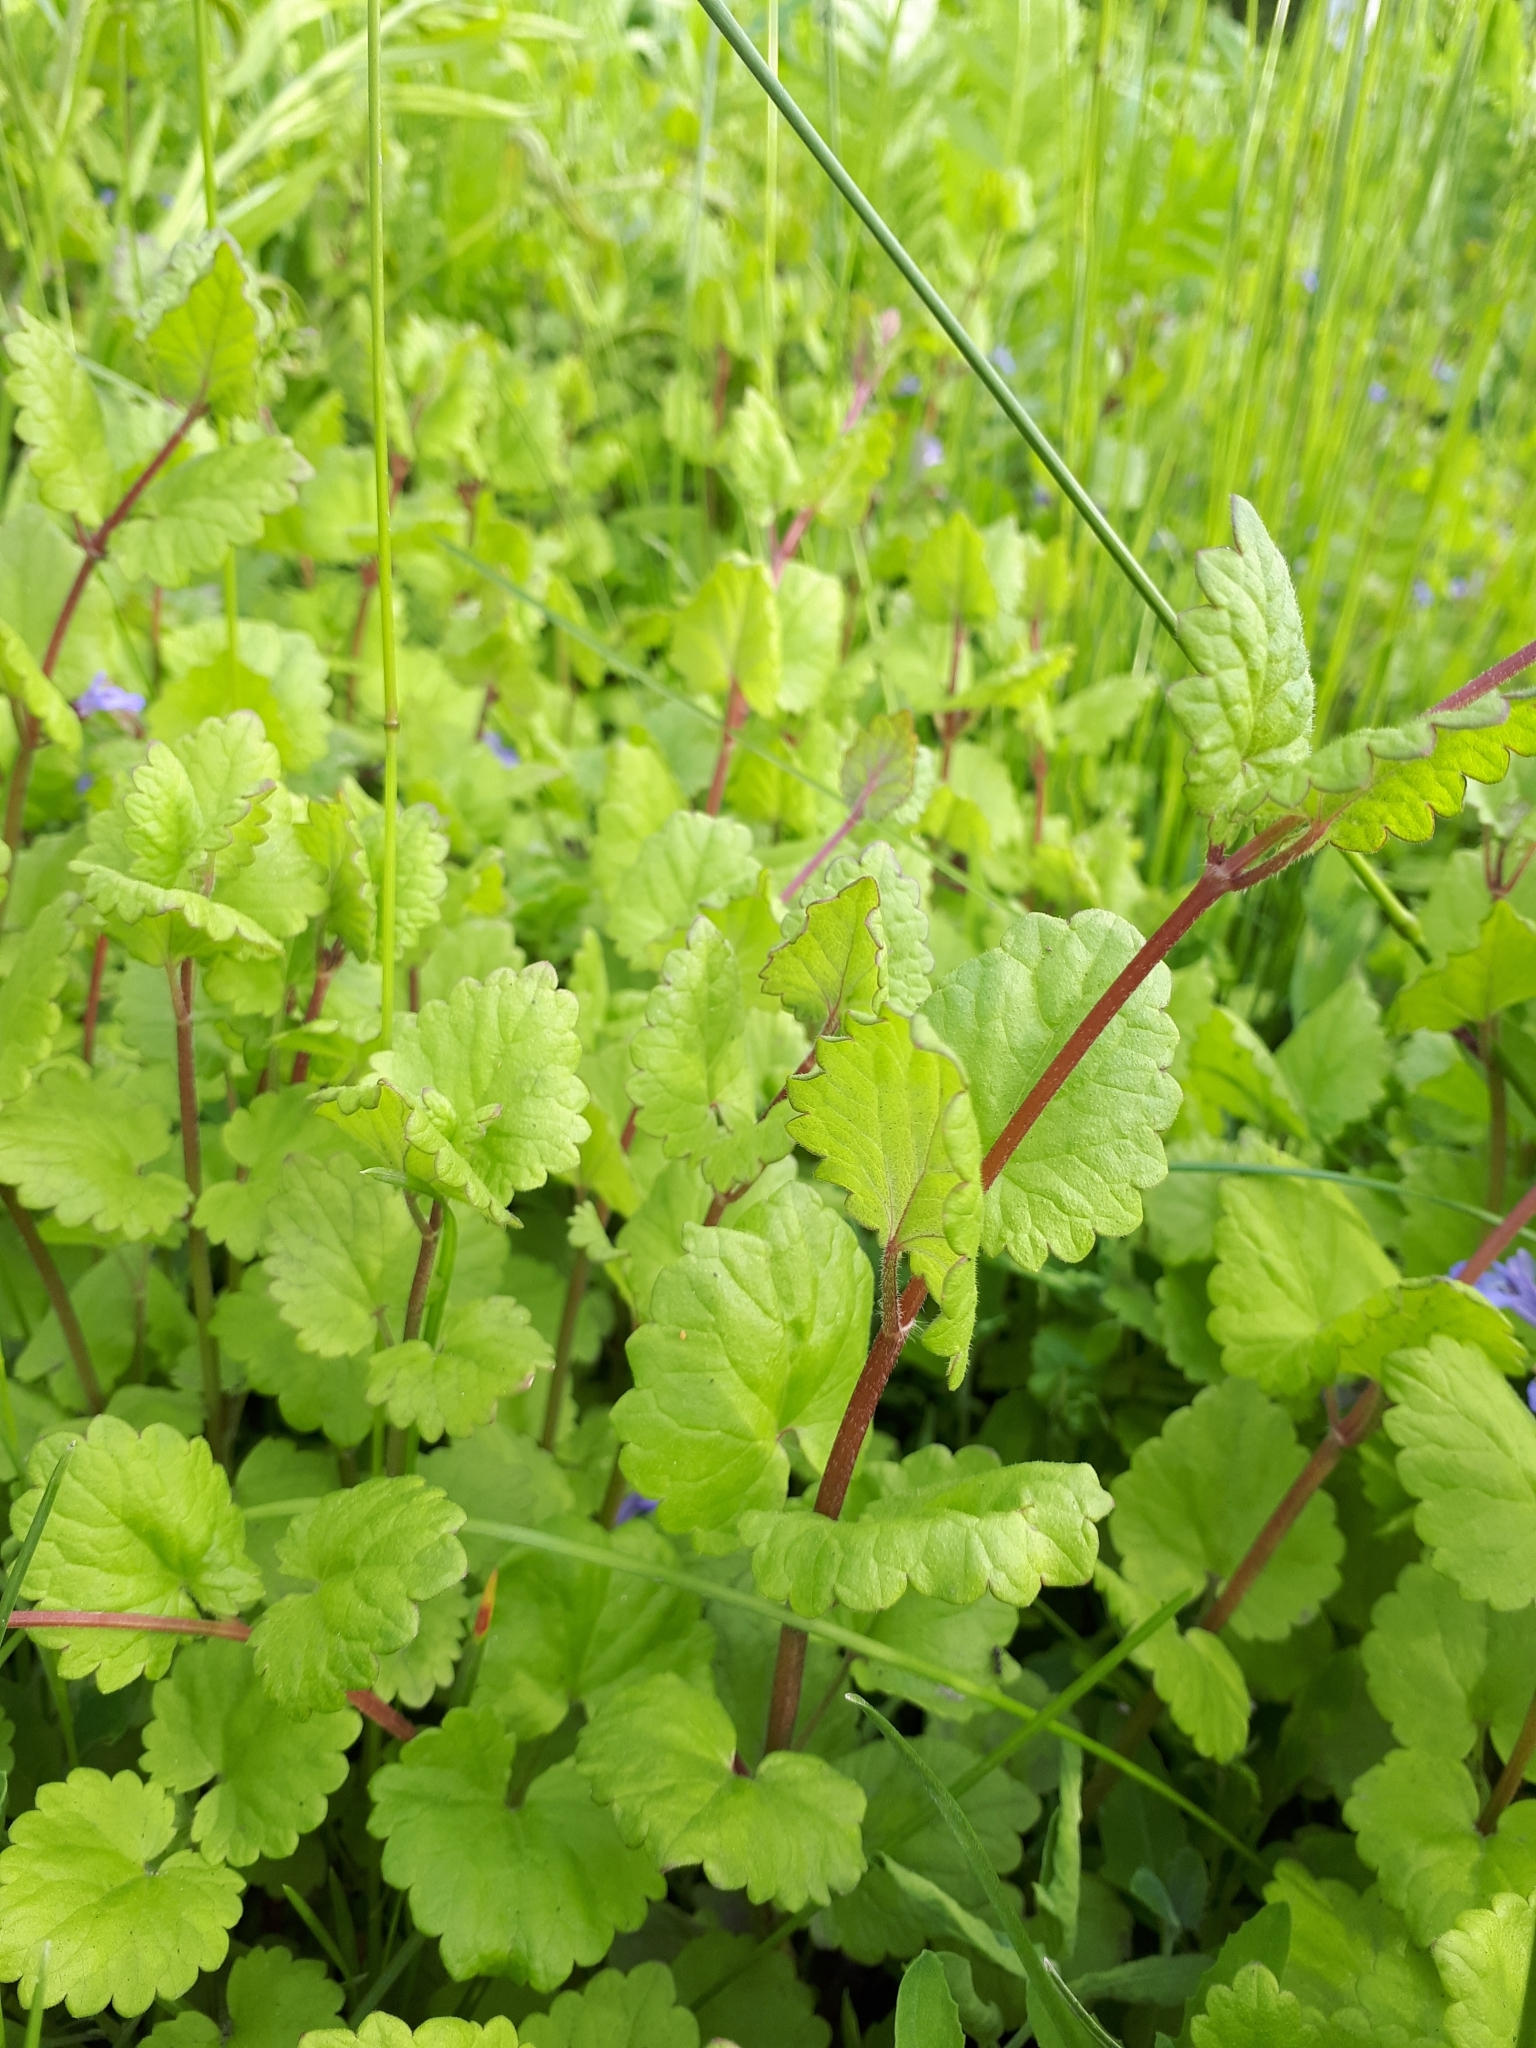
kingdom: Plantae
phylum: Tracheophyta
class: Magnoliopsida
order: Lamiales
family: Lamiaceae
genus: Glechoma
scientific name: Glechoma hederacea
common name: Ground ivy
